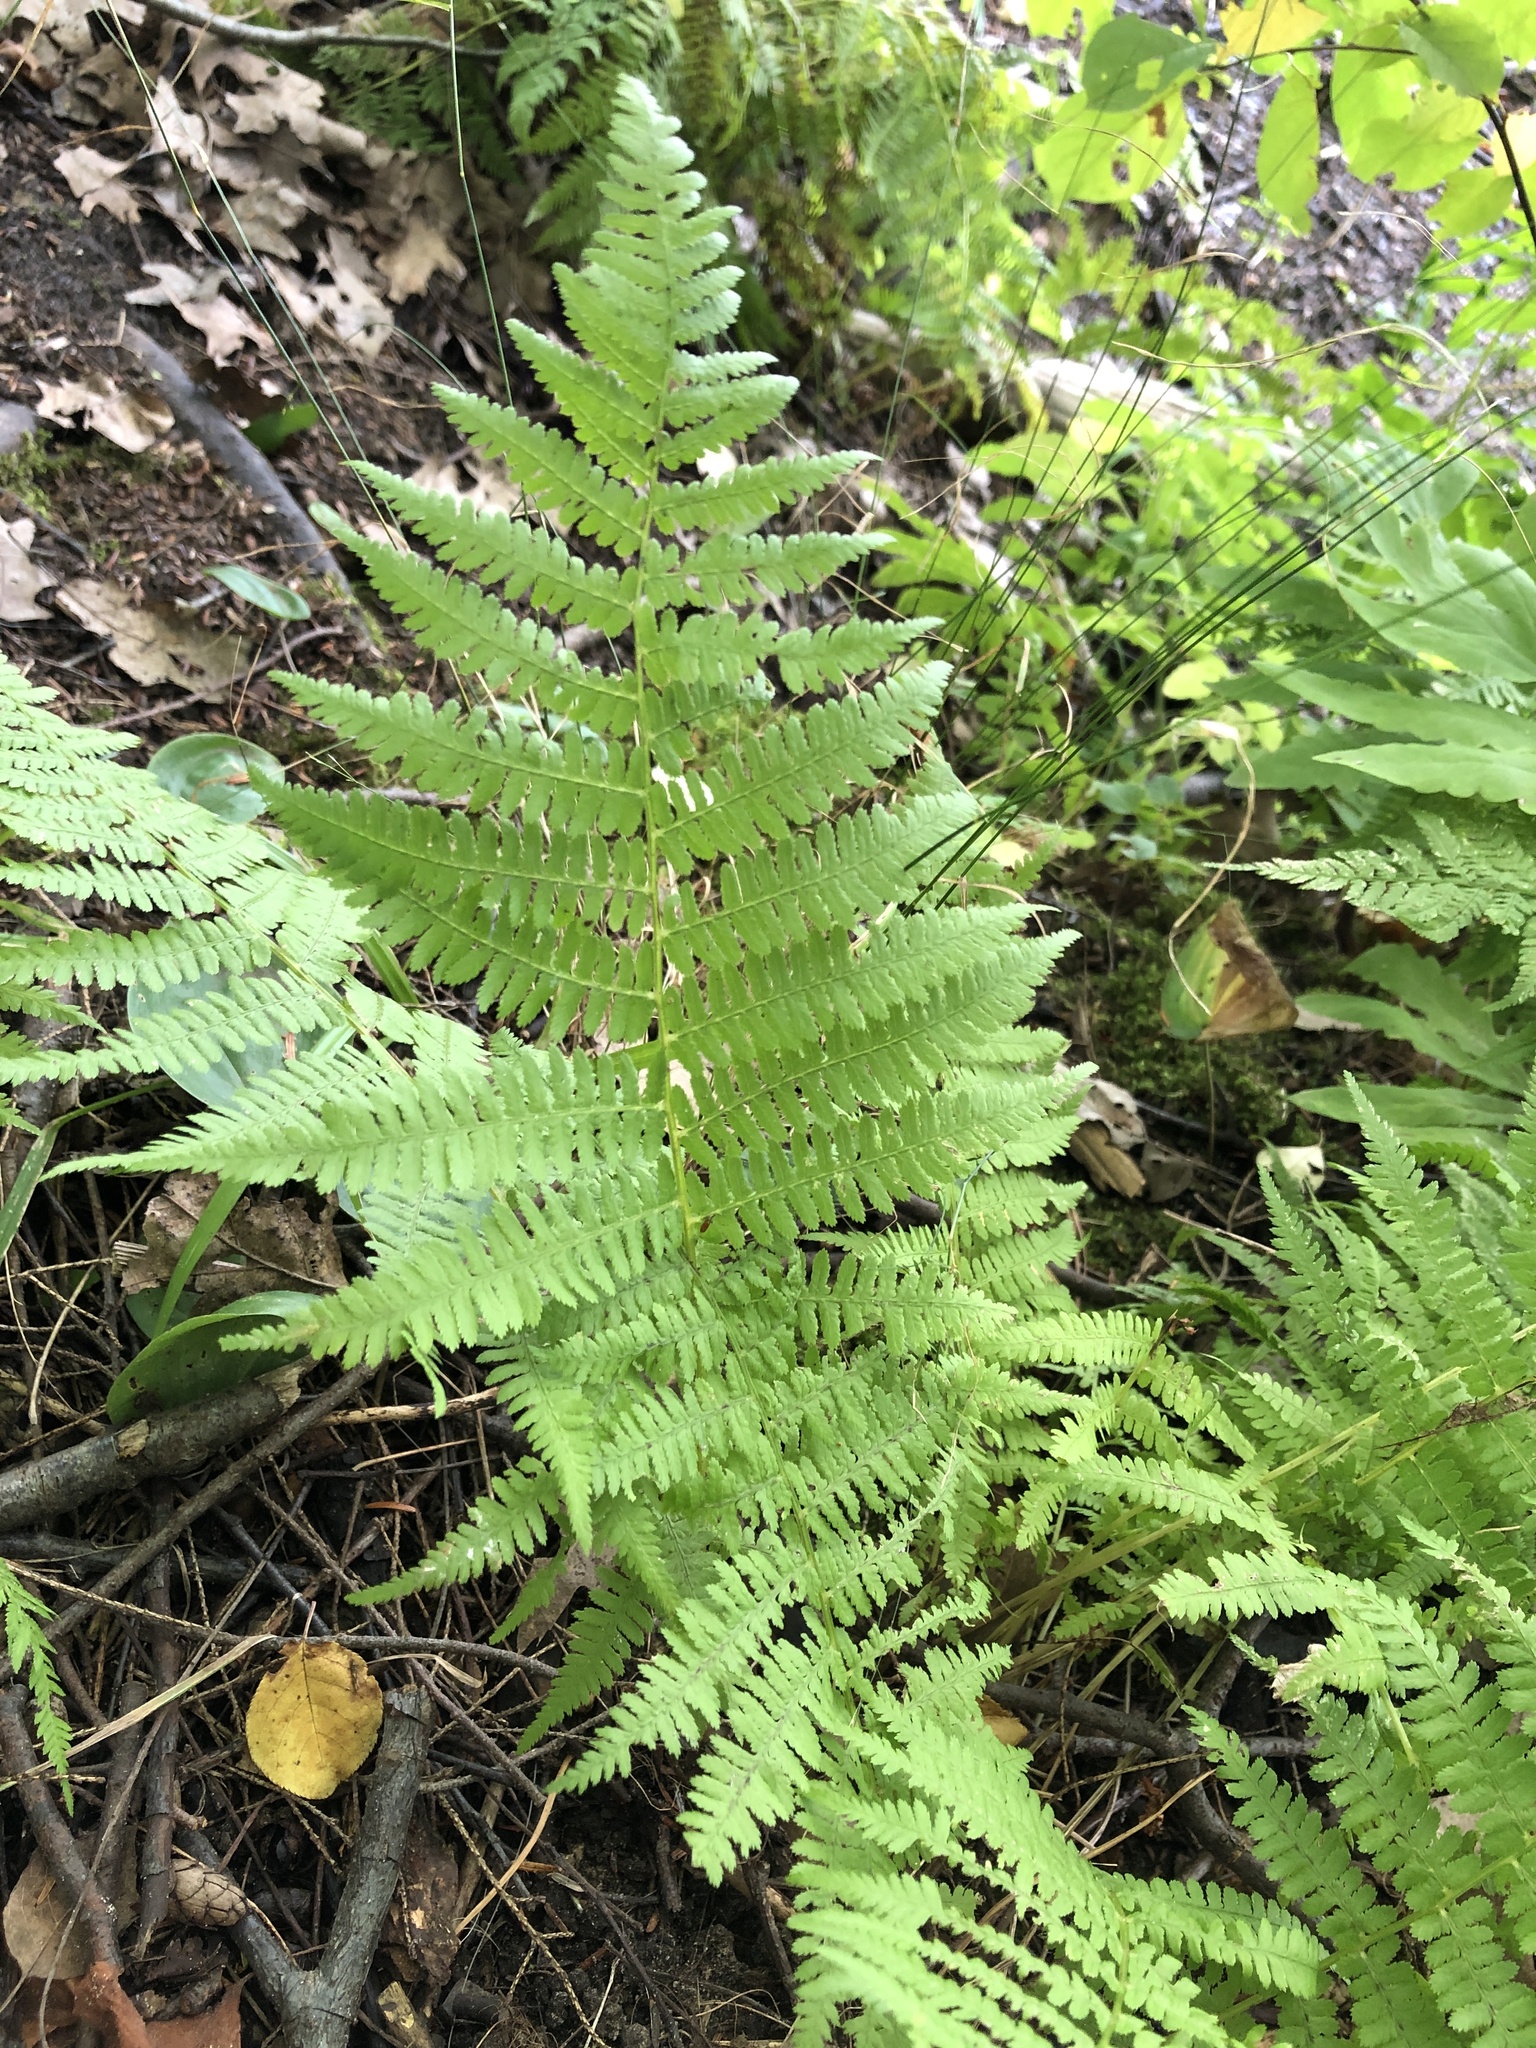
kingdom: Plantae
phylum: Tracheophyta
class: Polypodiopsida
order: Polypodiales
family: Athyriaceae
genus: Athyrium
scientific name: Athyrium angustum
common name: Northern lady fern
